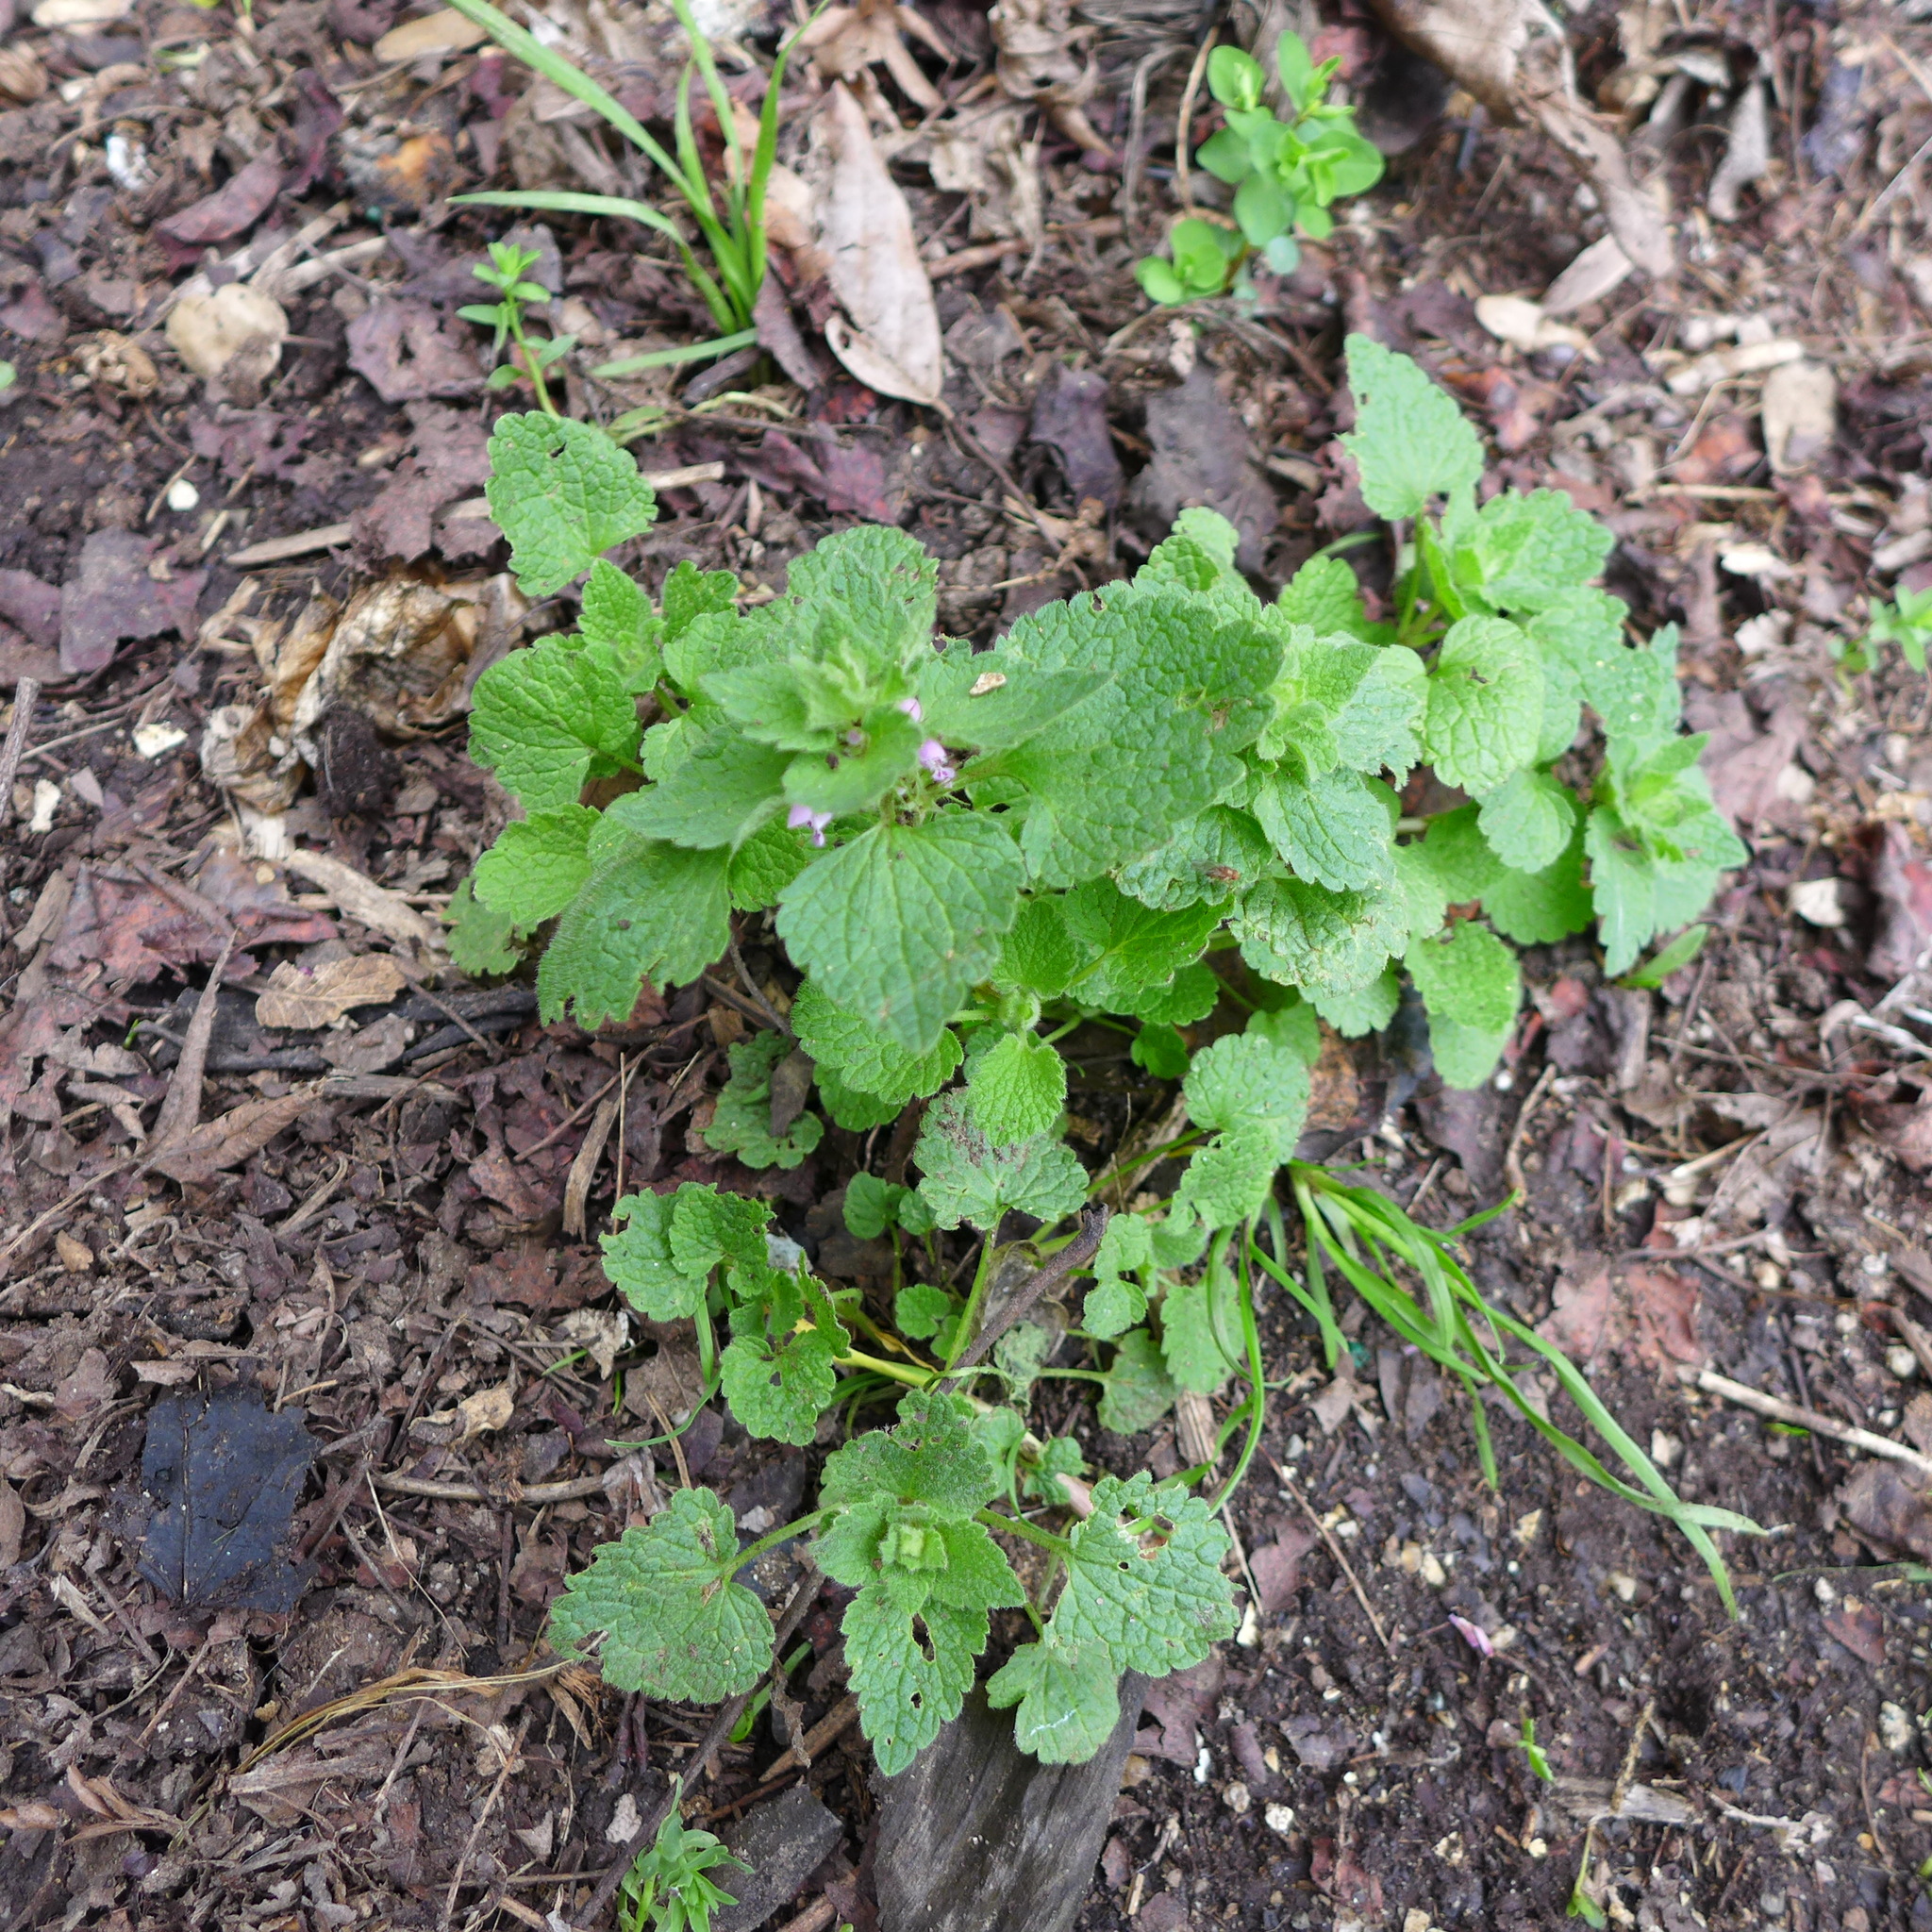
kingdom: Plantae
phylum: Tracheophyta
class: Magnoliopsida
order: Lamiales
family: Lamiaceae
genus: Lamium
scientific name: Lamium purpureum
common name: Red dead-nettle
